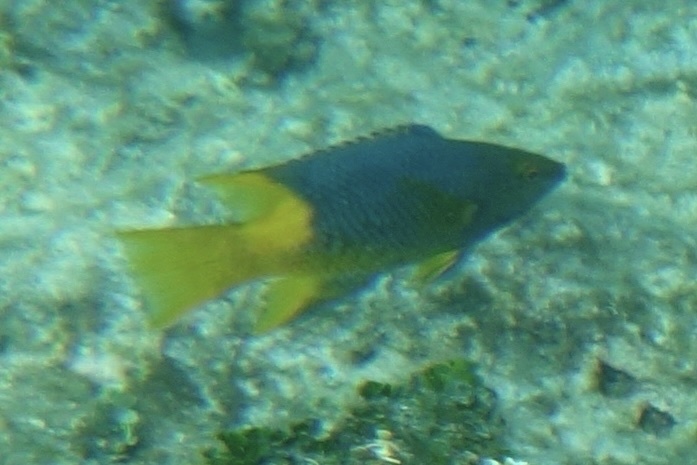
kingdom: Animalia
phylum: Chordata
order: Perciformes
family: Labridae
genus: Bodianus
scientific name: Bodianus rufus
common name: Spanish hogfish
